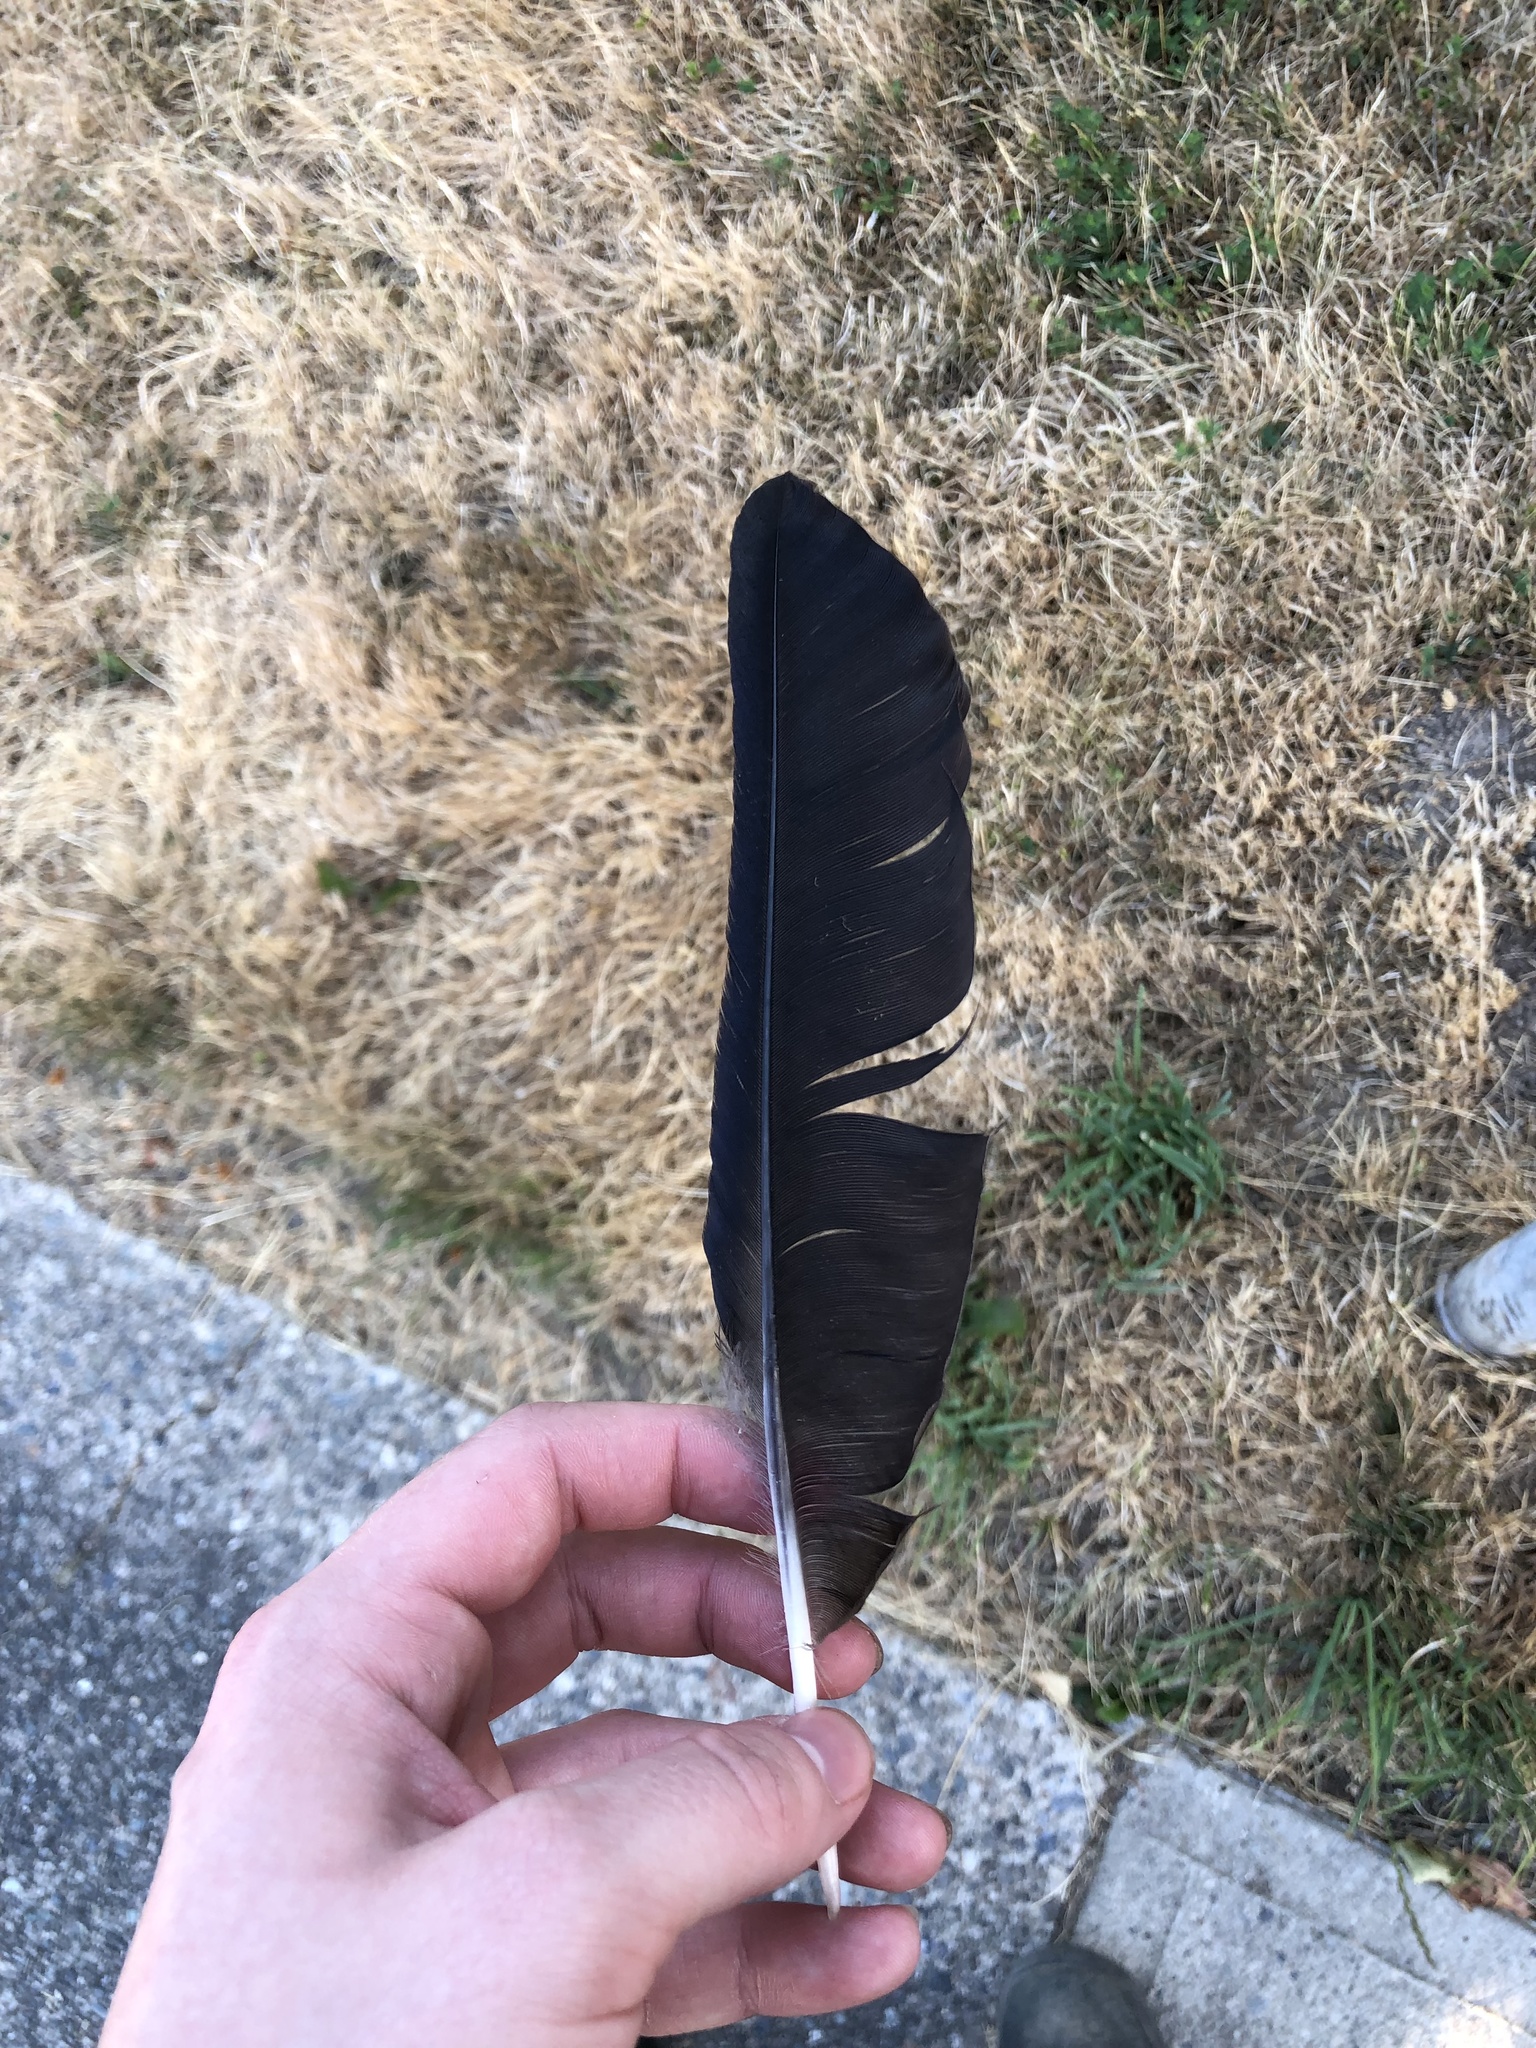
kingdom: Animalia
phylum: Chordata
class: Aves
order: Passeriformes
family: Corvidae
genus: Corvus
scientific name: Corvus brachyrhynchos
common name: American crow
